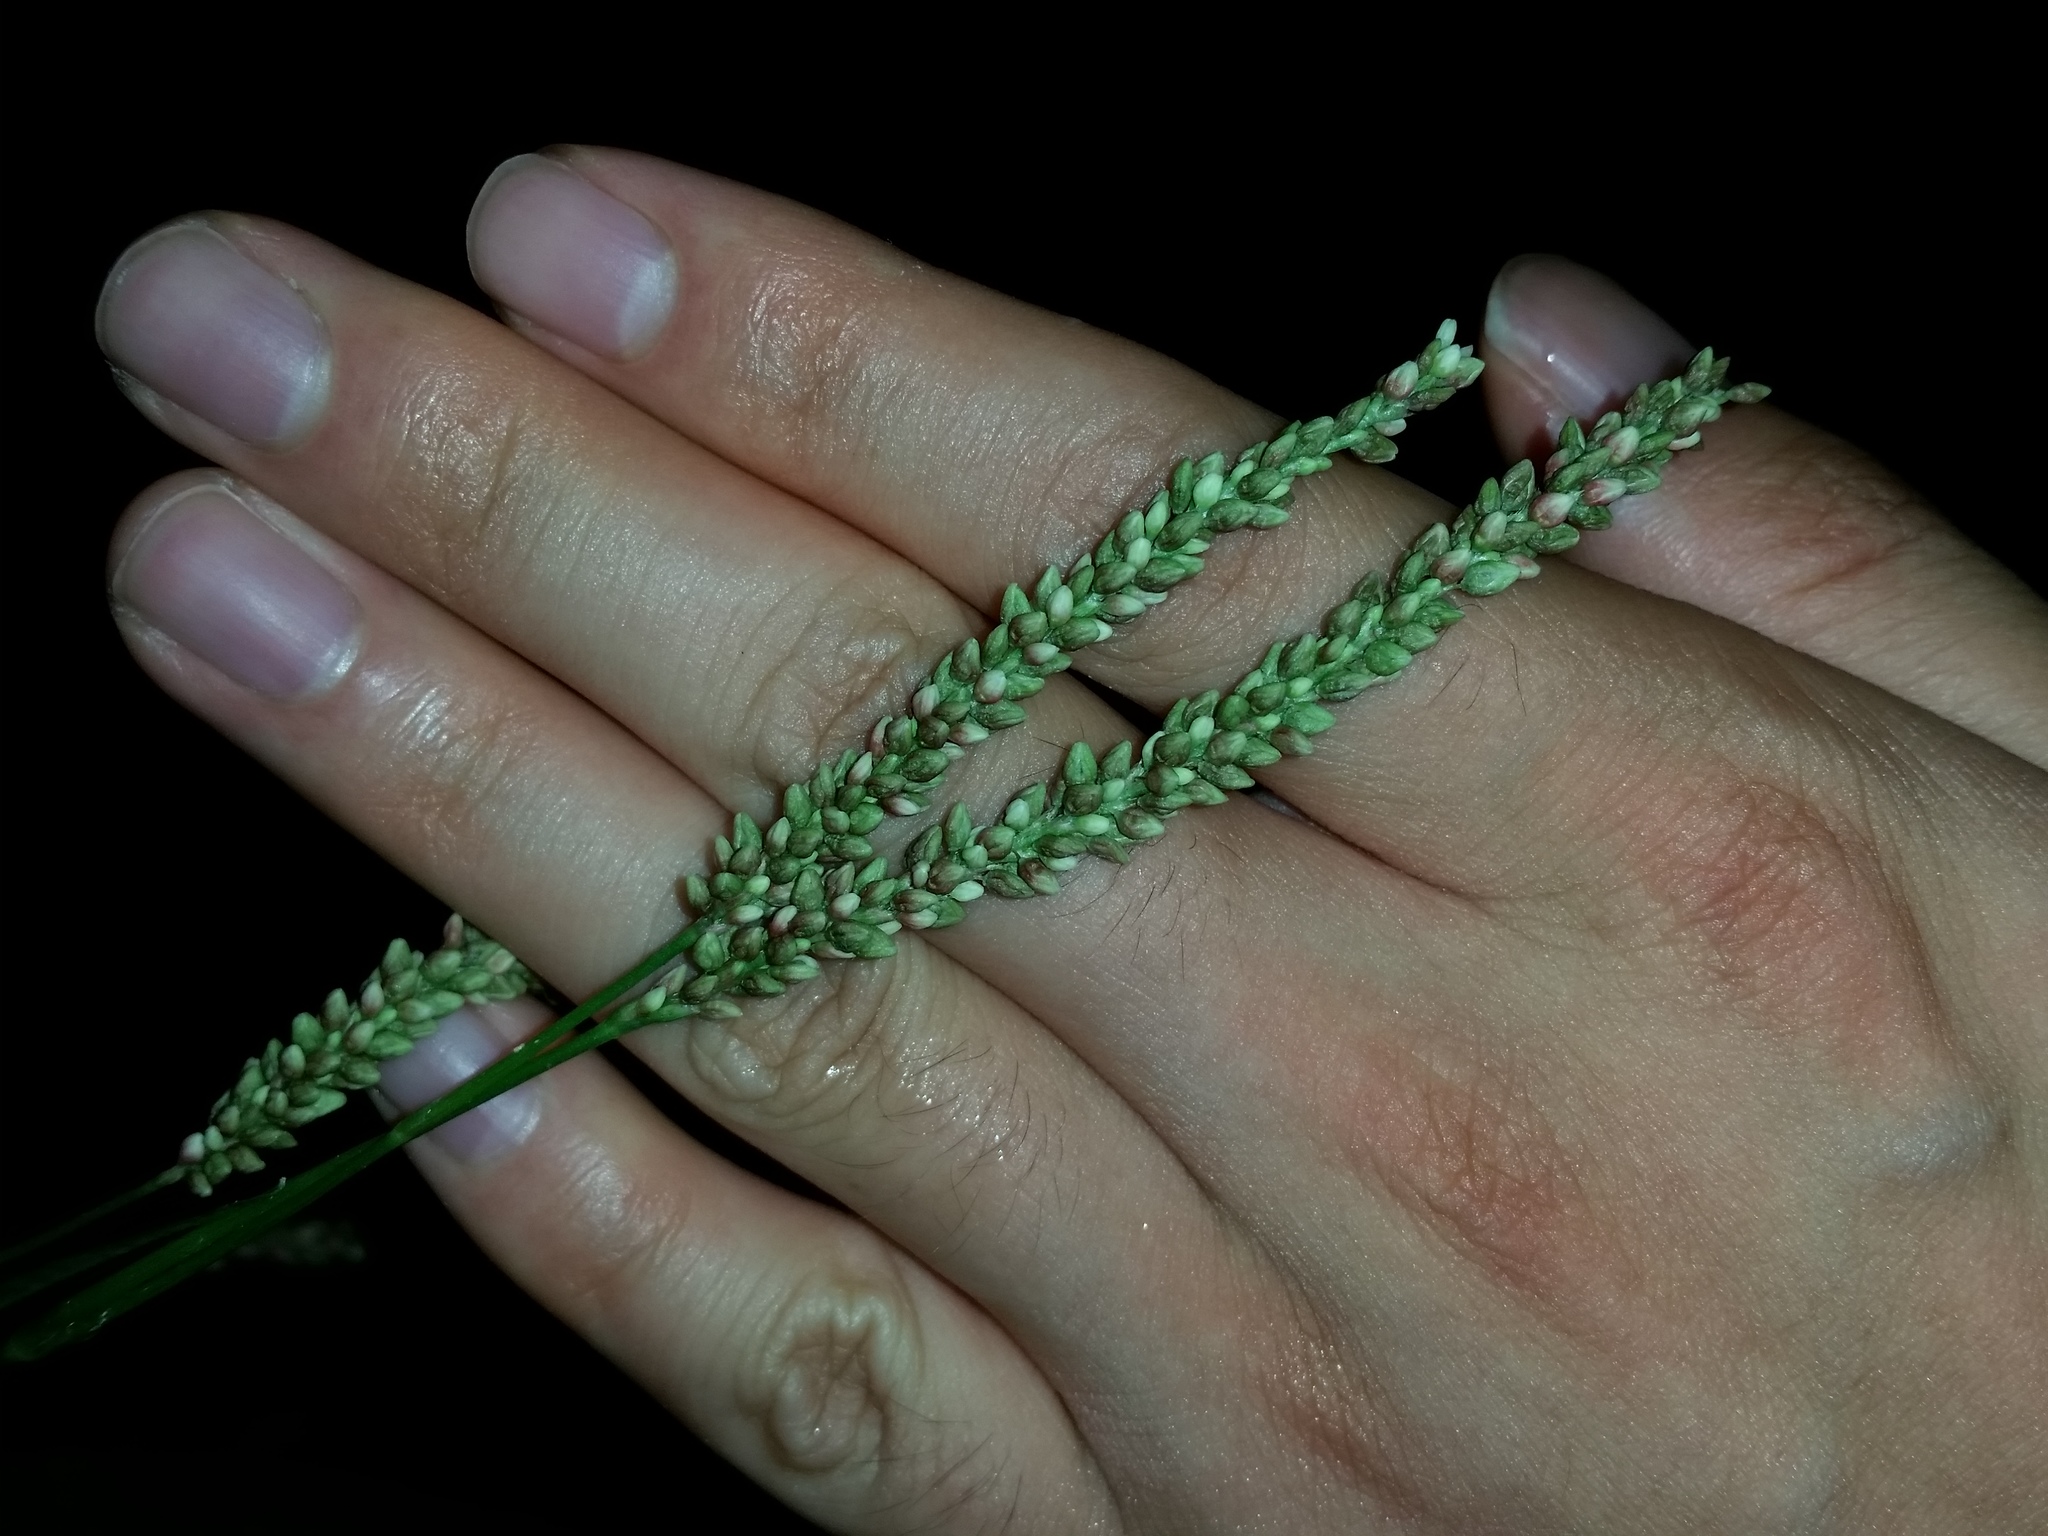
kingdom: Plantae
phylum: Tracheophyta
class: Magnoliopsida
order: Caryophyllales
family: Polygonaceae
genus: Persicaria
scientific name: Persicaria extremiorientalis
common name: Far-eastern smartweed
